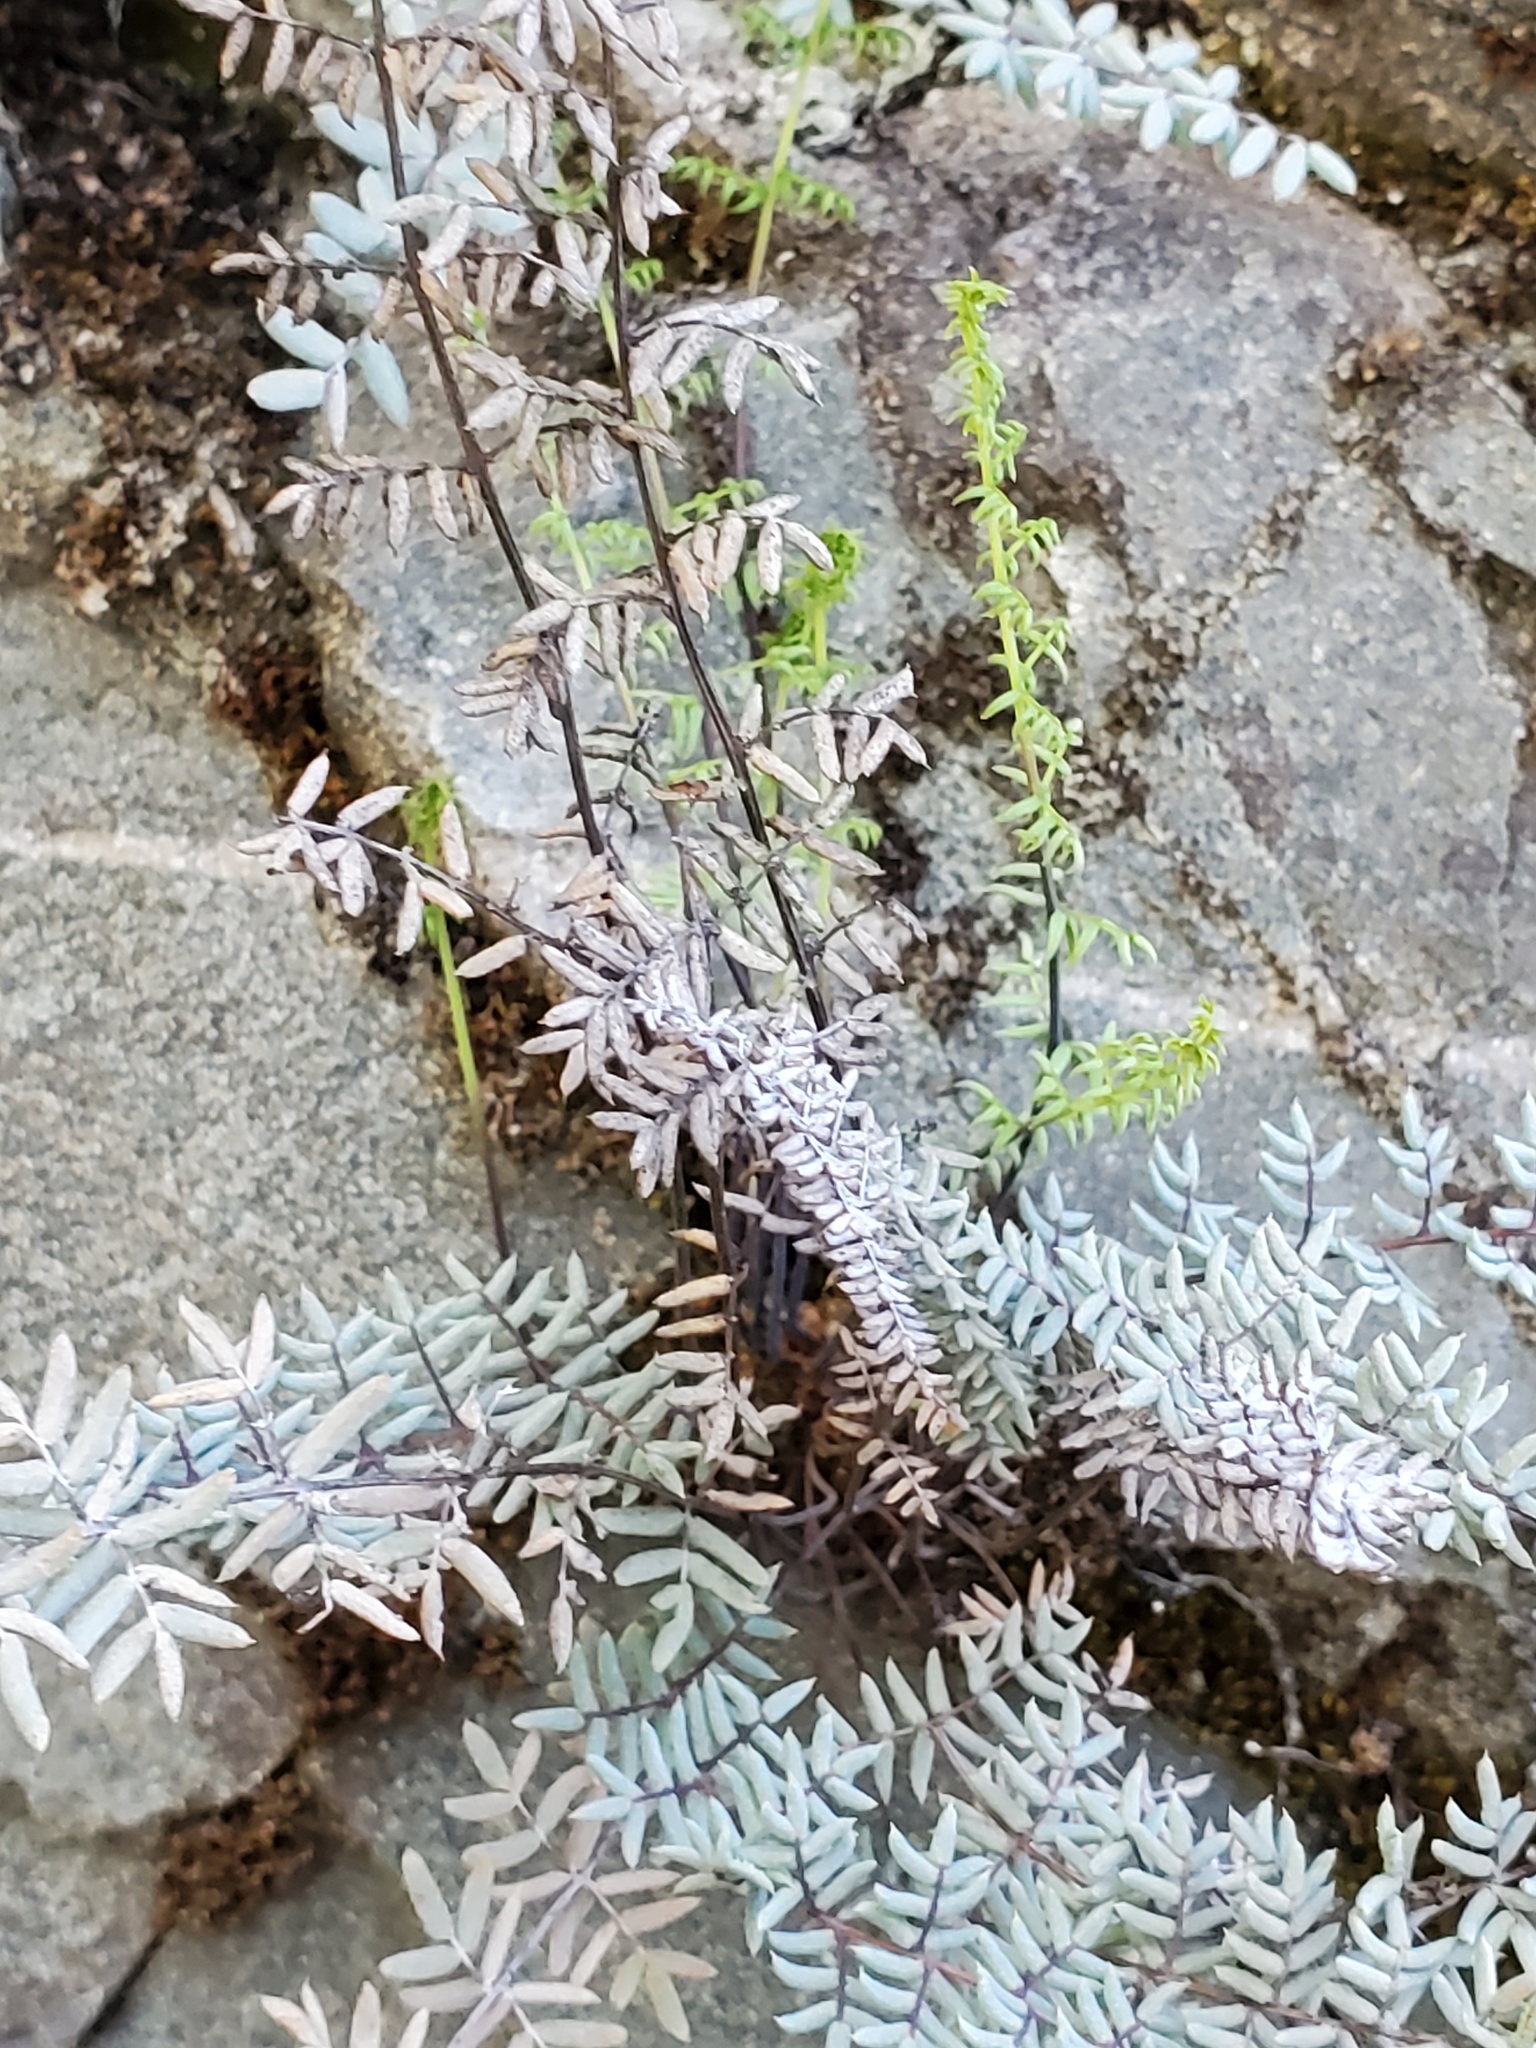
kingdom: Plantae
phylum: Tracheophyta
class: Polypodiopsida
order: Polypodiales
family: Pteridaceae
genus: Pellaea
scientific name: Pellaea mucronata
